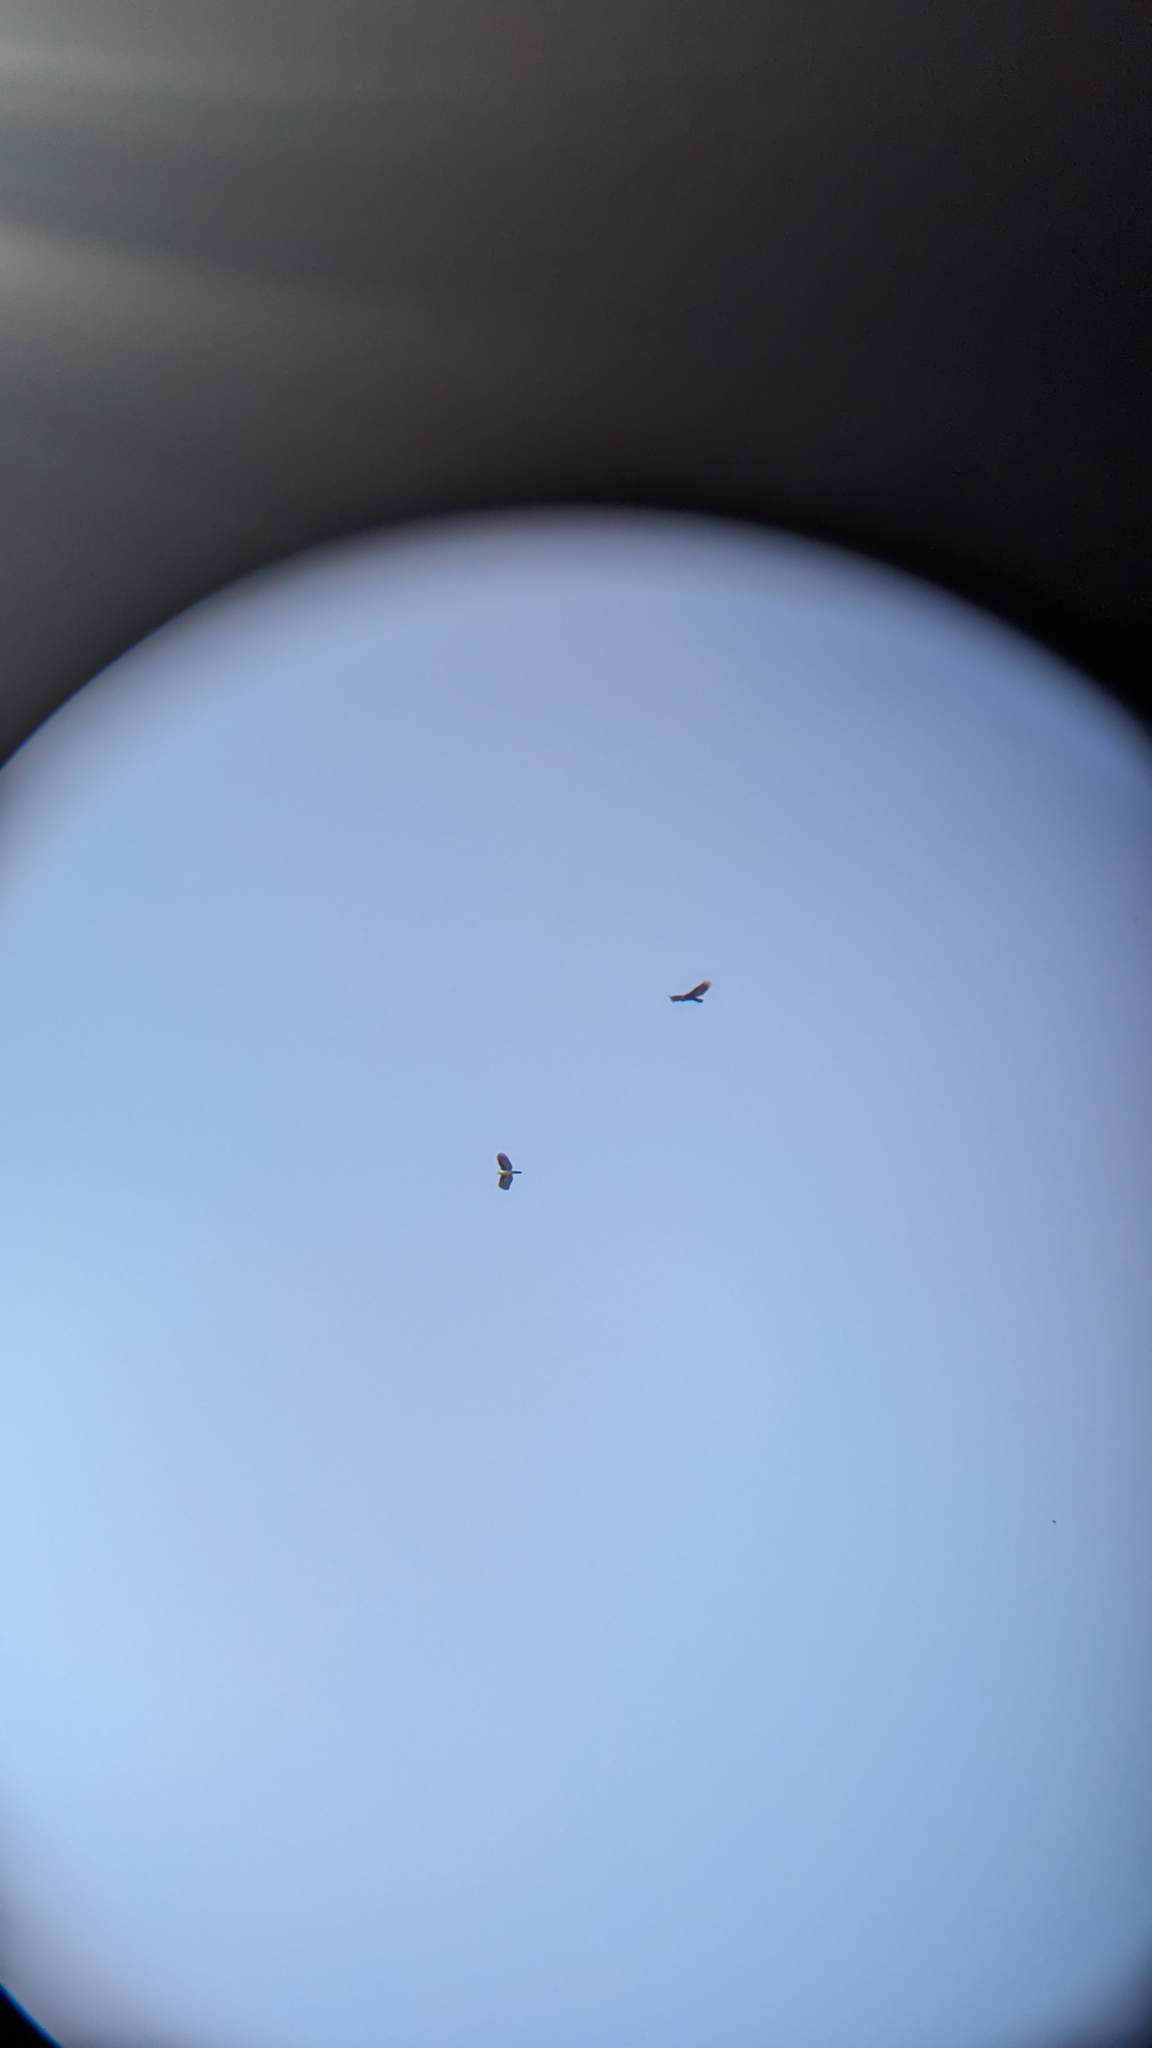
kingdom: Animalia
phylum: Chordata
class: Aves
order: Accipitriformes
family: Accipitridae
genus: Leptodon
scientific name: Leptodon cayanensis
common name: Gray-headed kite
